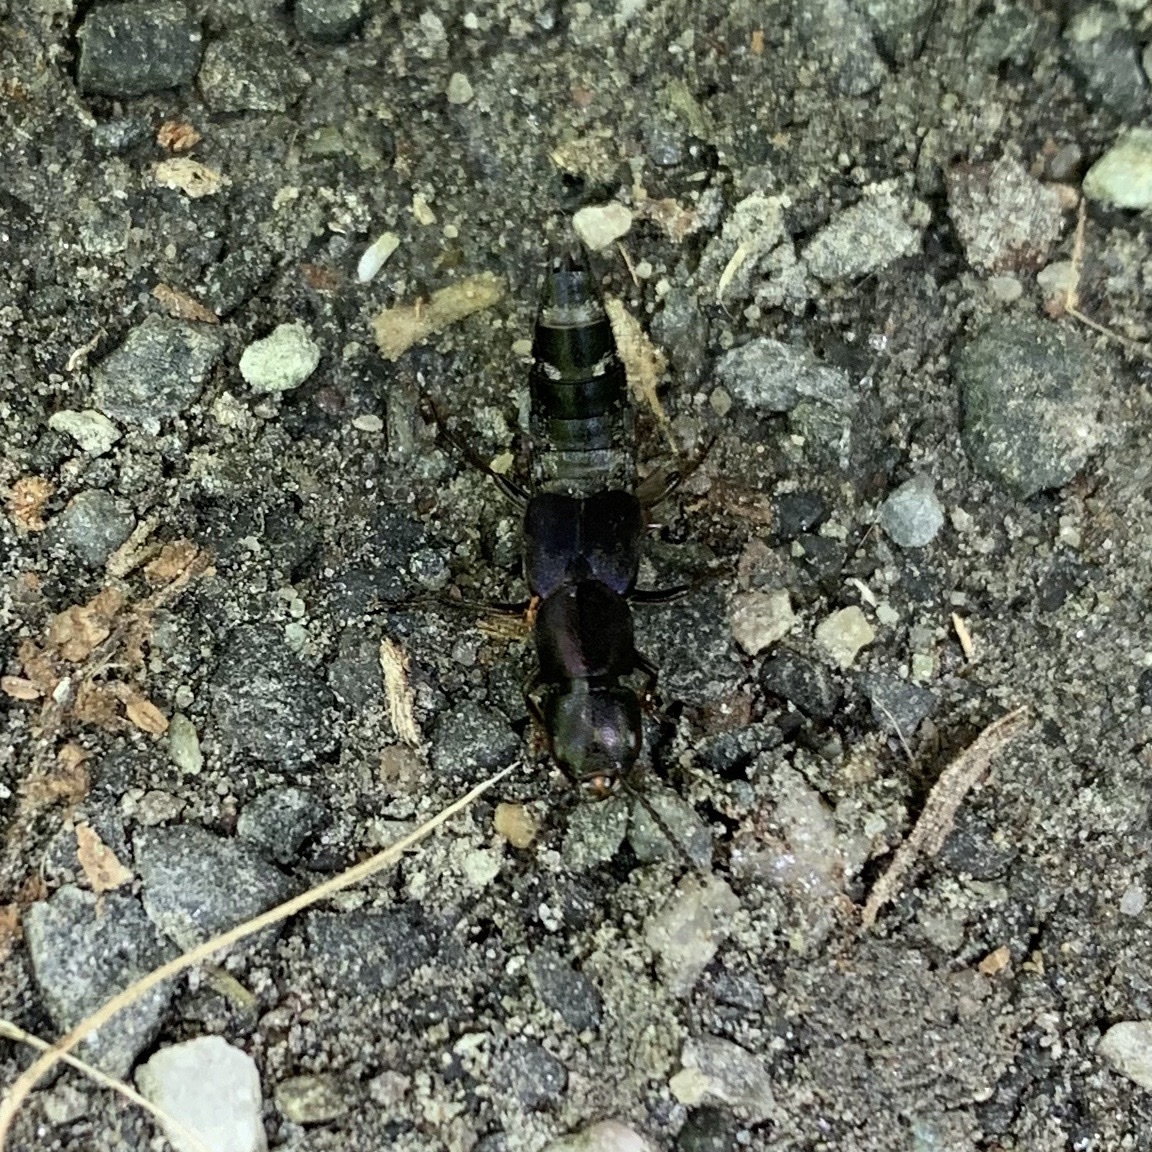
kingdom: Animalia
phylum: Arthropoda
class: Insecta
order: Coleoptera
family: Staphylinidae
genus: Platydracus
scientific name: Platydracus violaceus
